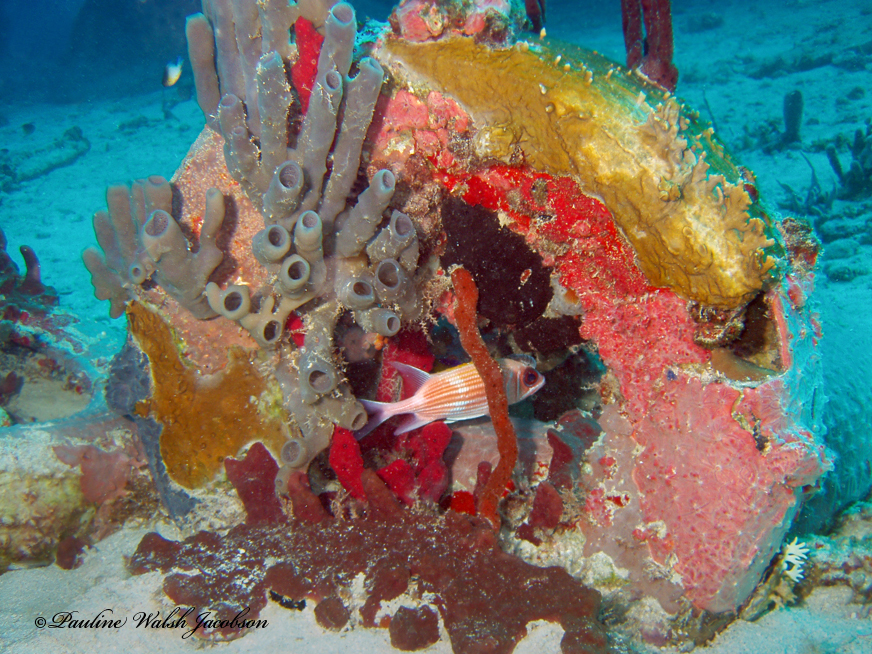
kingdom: Animalia
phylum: Chordata
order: Beryciformes
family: Holocentridae
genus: Holocentrus
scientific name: Holocentrus rufus
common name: Longspine squirrelfish
